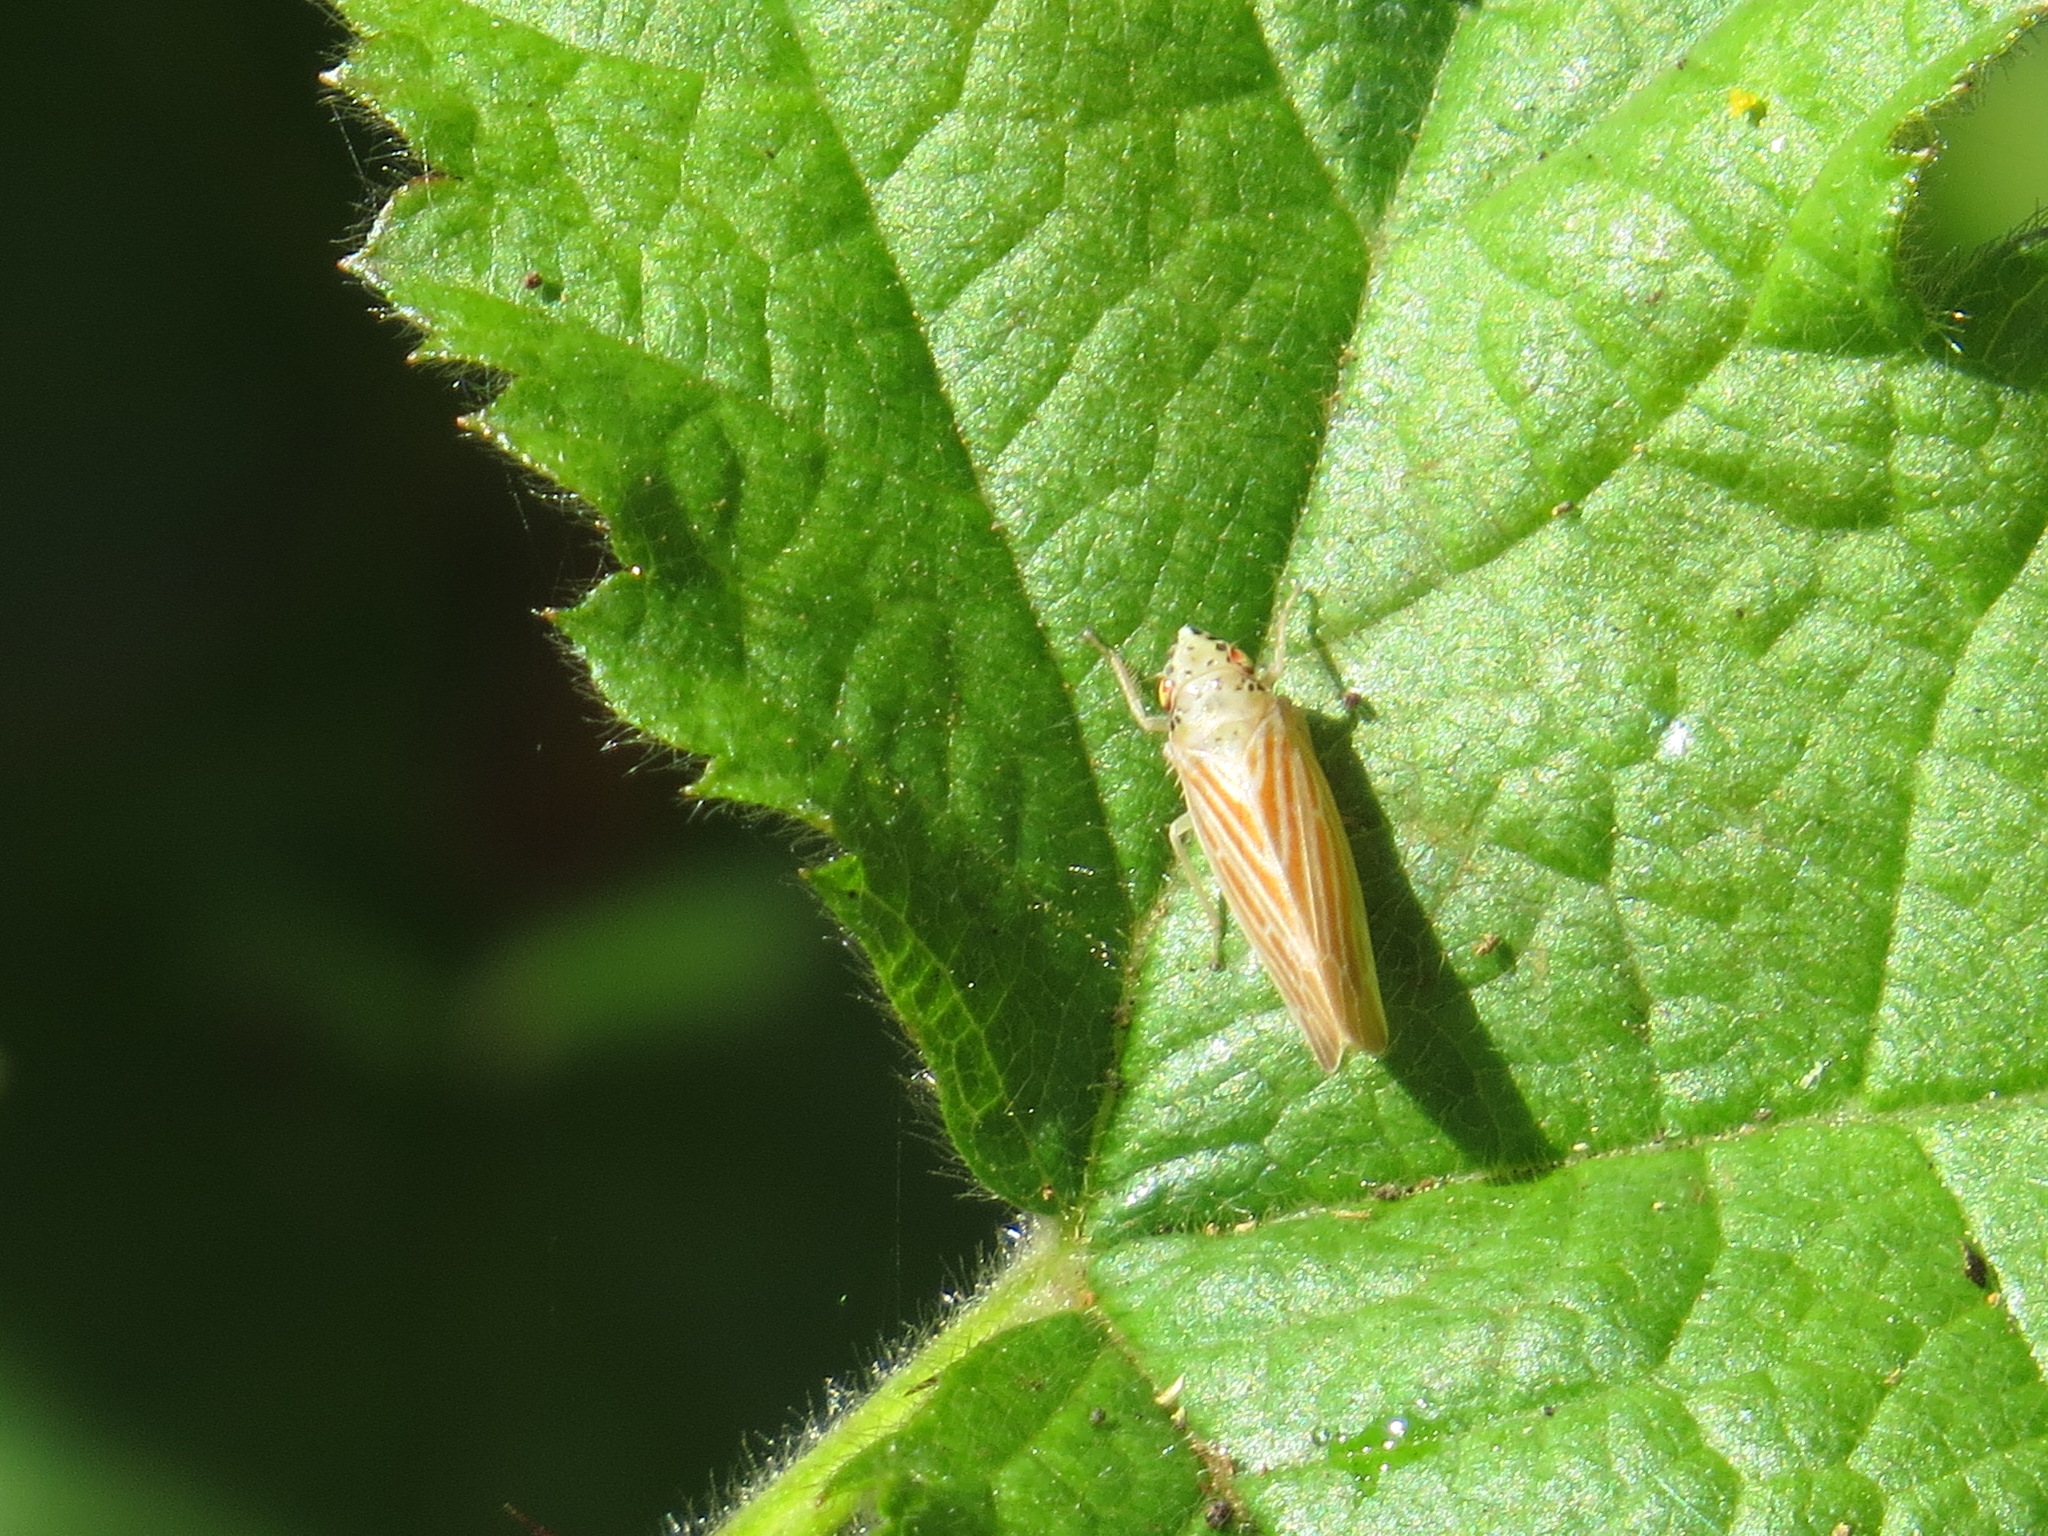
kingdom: Animalia
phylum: Arthropoda
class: Insecta
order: Hemiptera
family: Cicadellidae
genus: Pagaronia
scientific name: Pagaronia triunata
